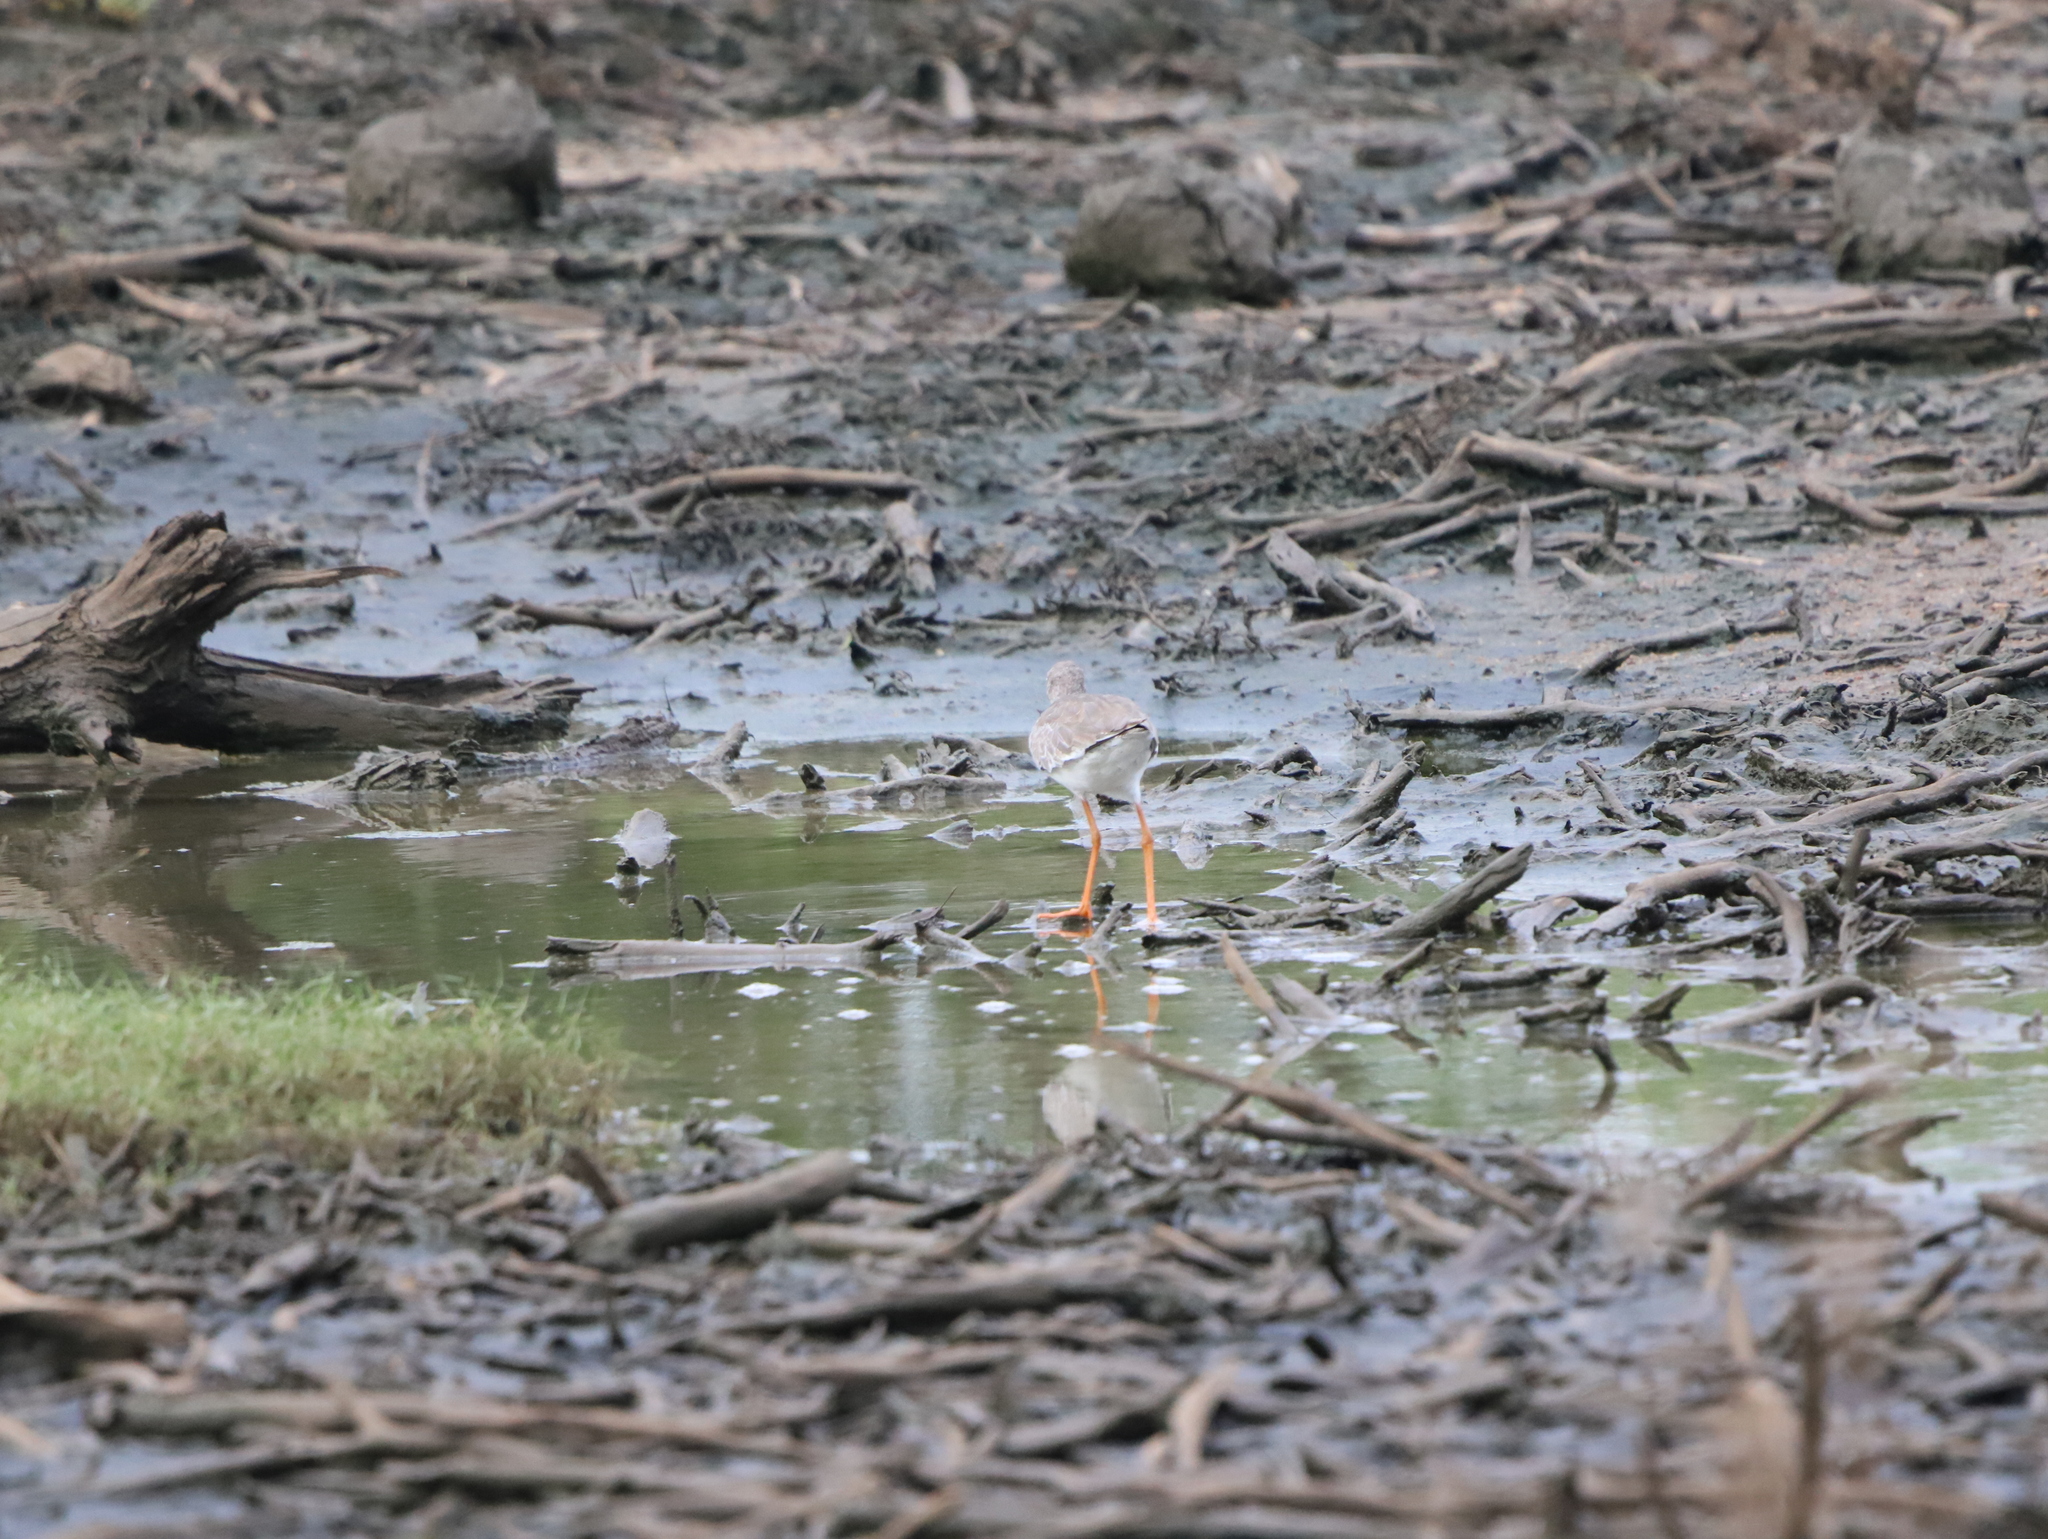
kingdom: Animalia
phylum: Chordata
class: Aves
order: Charadriiformes
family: Scolopacidae
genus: Tringa
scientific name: Tringa totanus
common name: Common redshank
